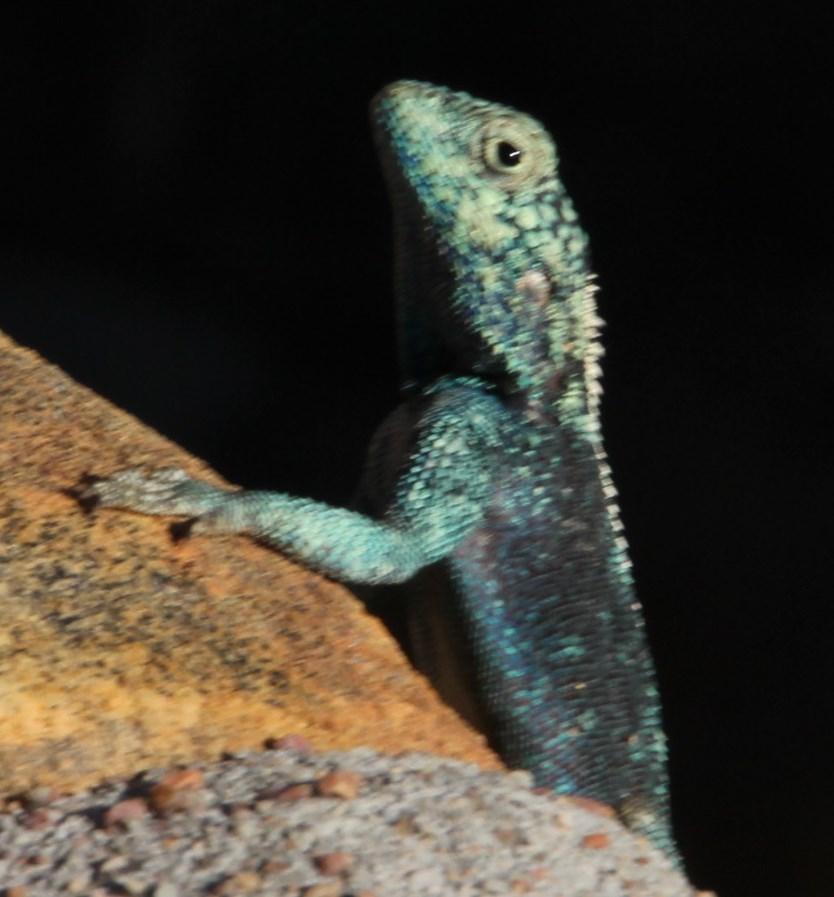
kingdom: Animalia
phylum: Chordata
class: Squamata
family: Agamidae
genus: Agama
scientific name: Agama atra
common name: Southern african rock agama
